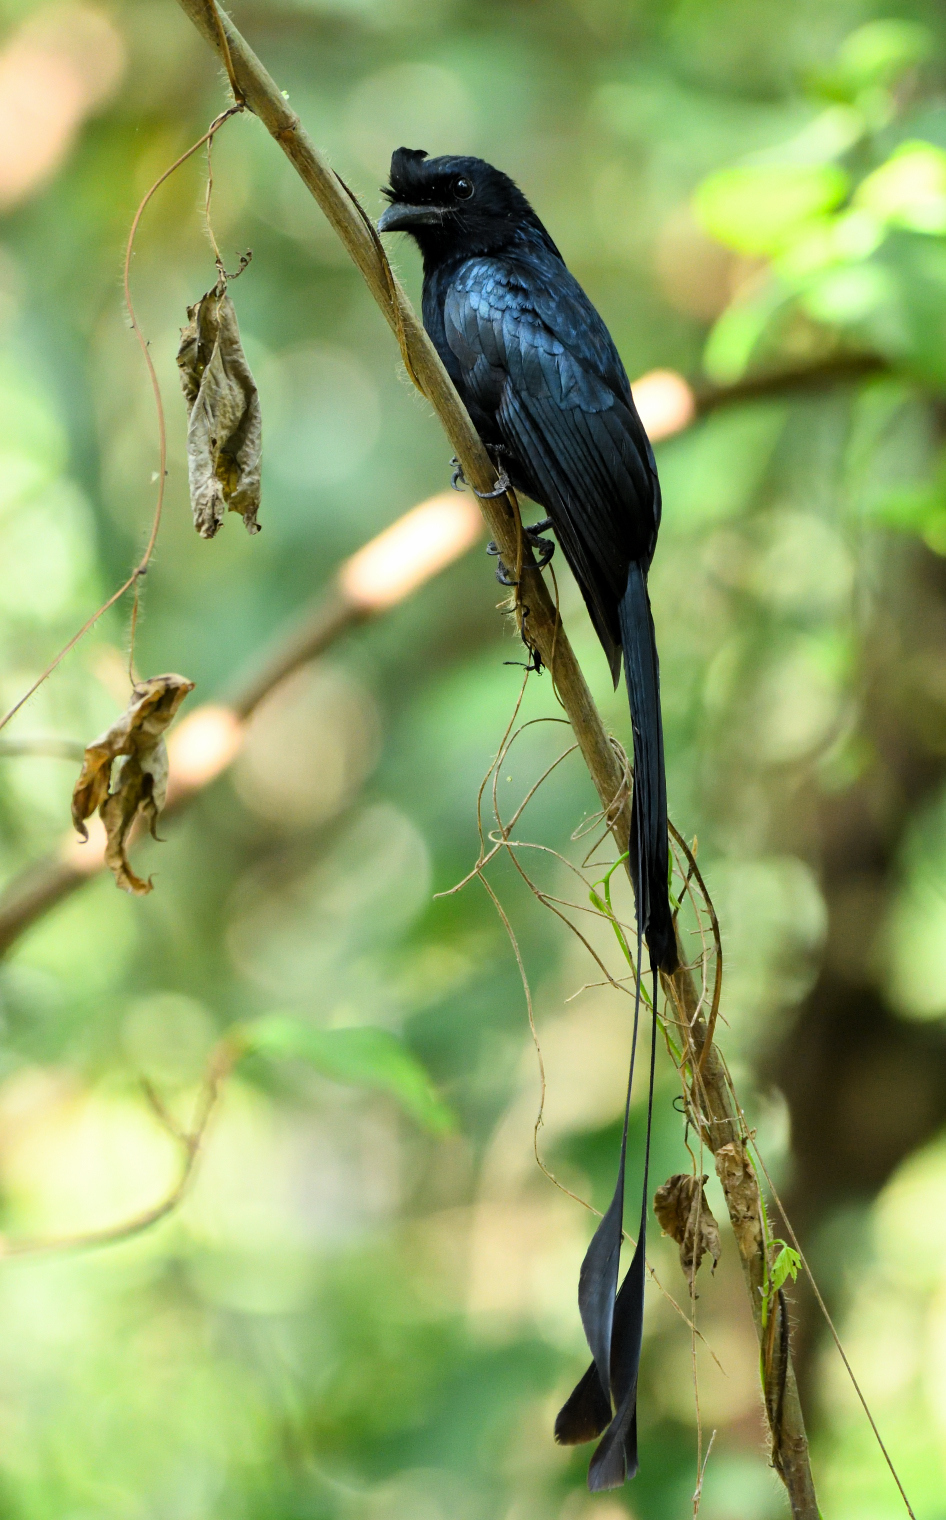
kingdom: Animalia
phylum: Chordata
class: Aves
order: Passeriformes
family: Dicruridae
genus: Dicrurus
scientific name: Dicrurus paradiseus
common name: Greater racket-tailed drongo
